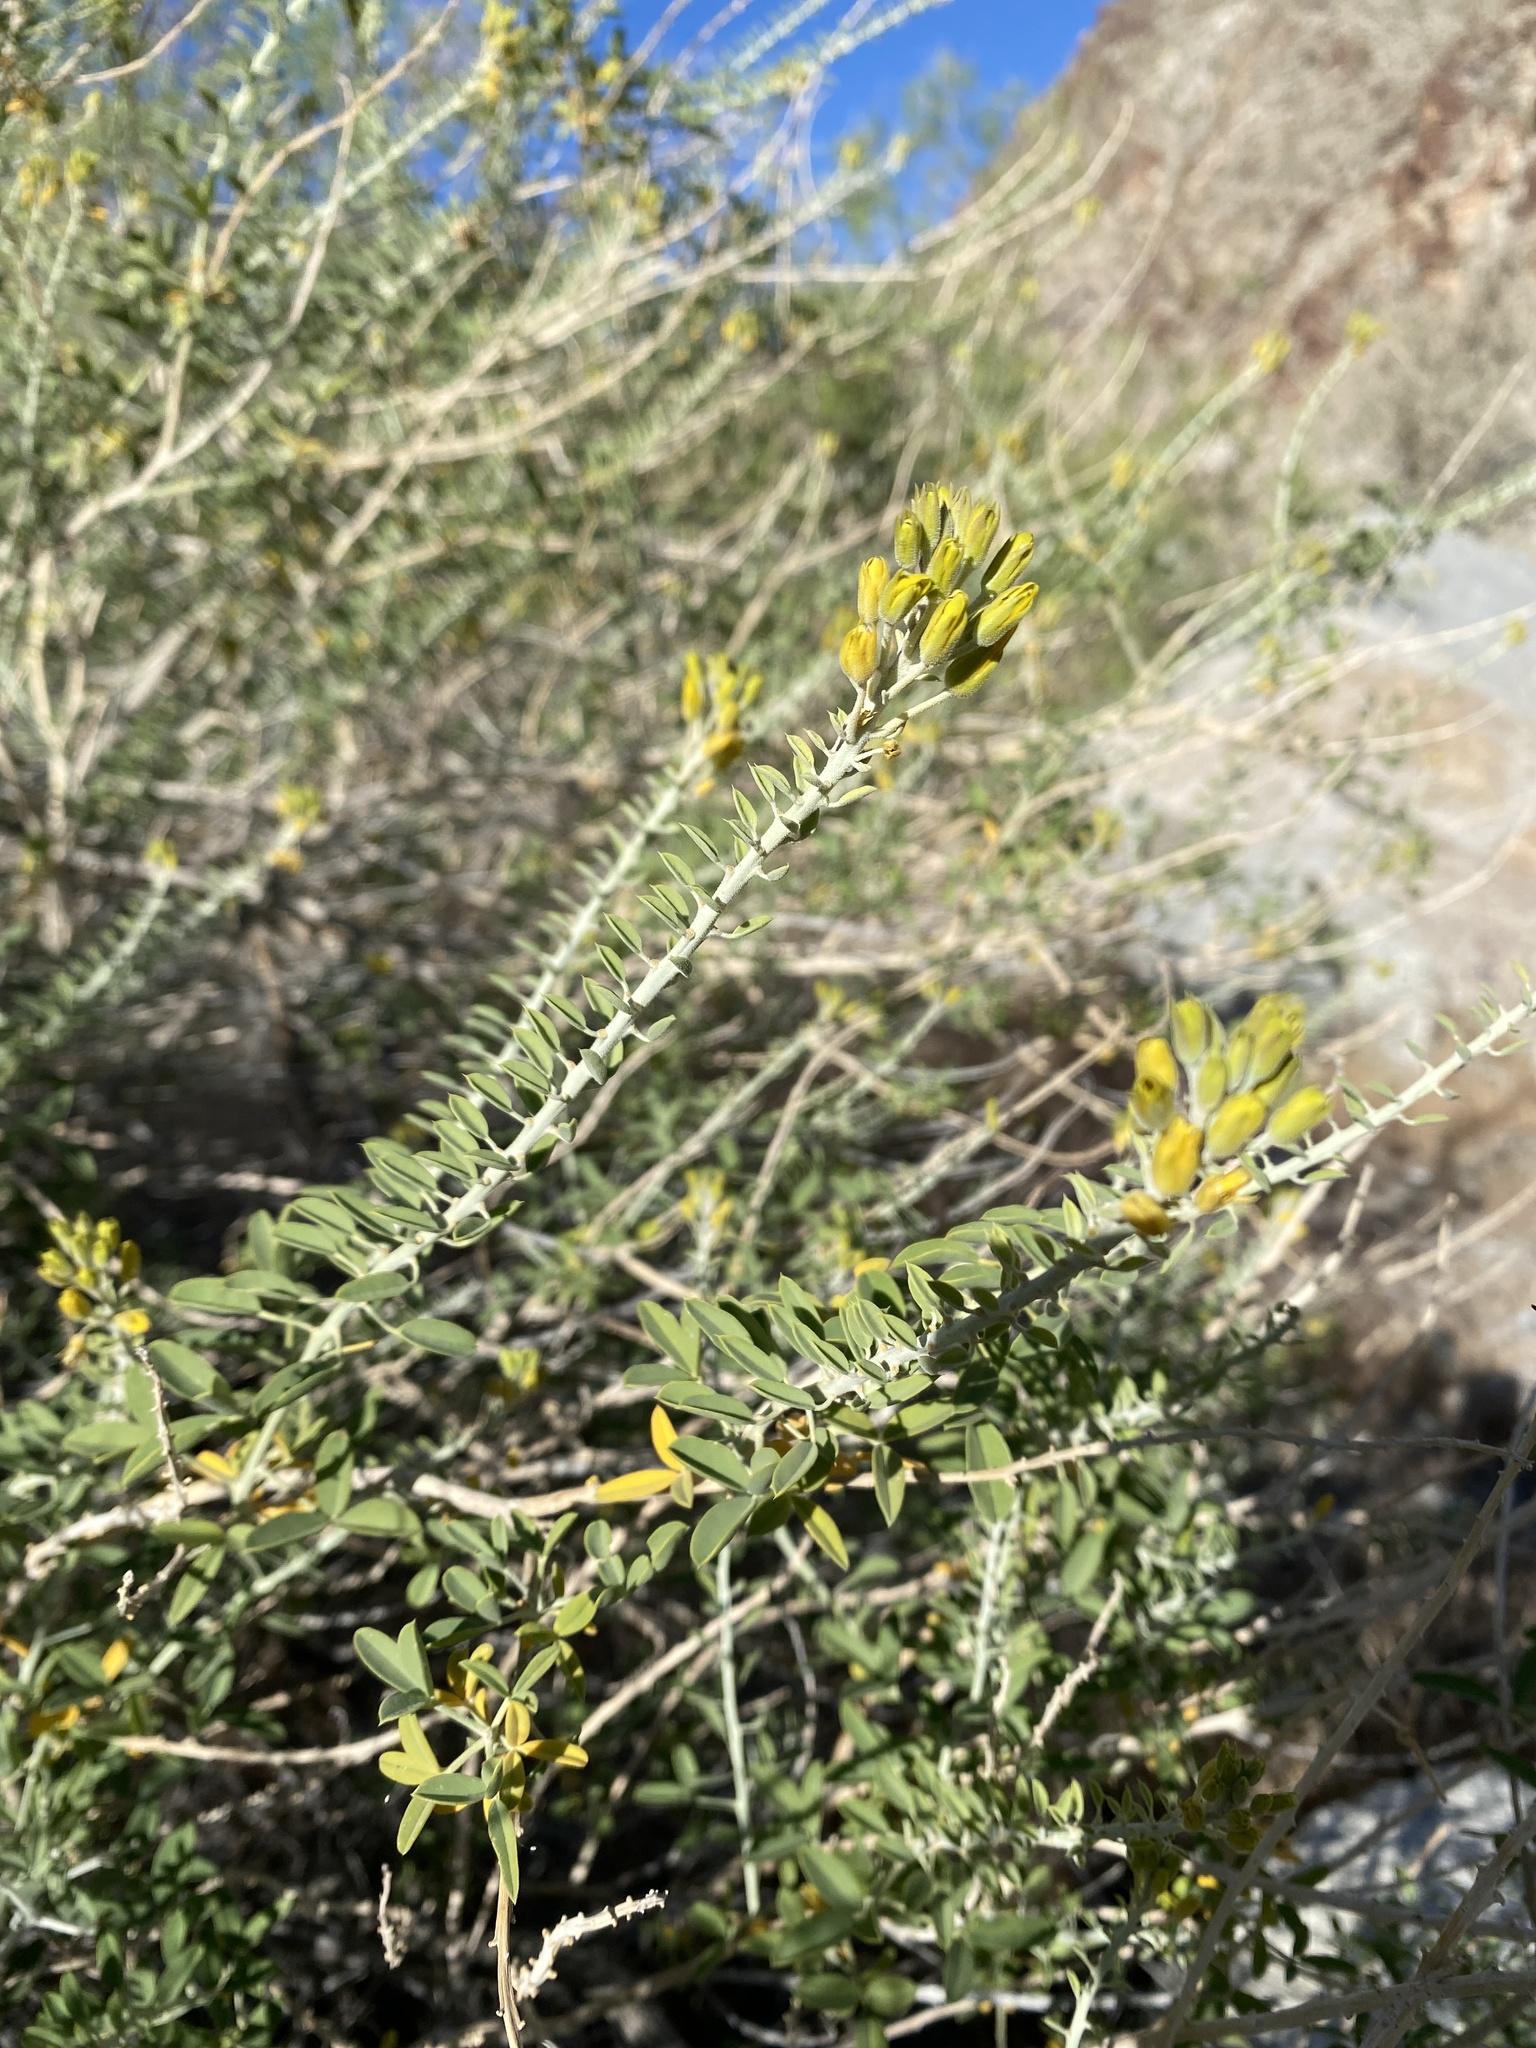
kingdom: Plantae
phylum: Tracheophyta
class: Magnoliopsida
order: Brassicales
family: Cleomaceae
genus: Cleomella
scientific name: Cleomella arborea
